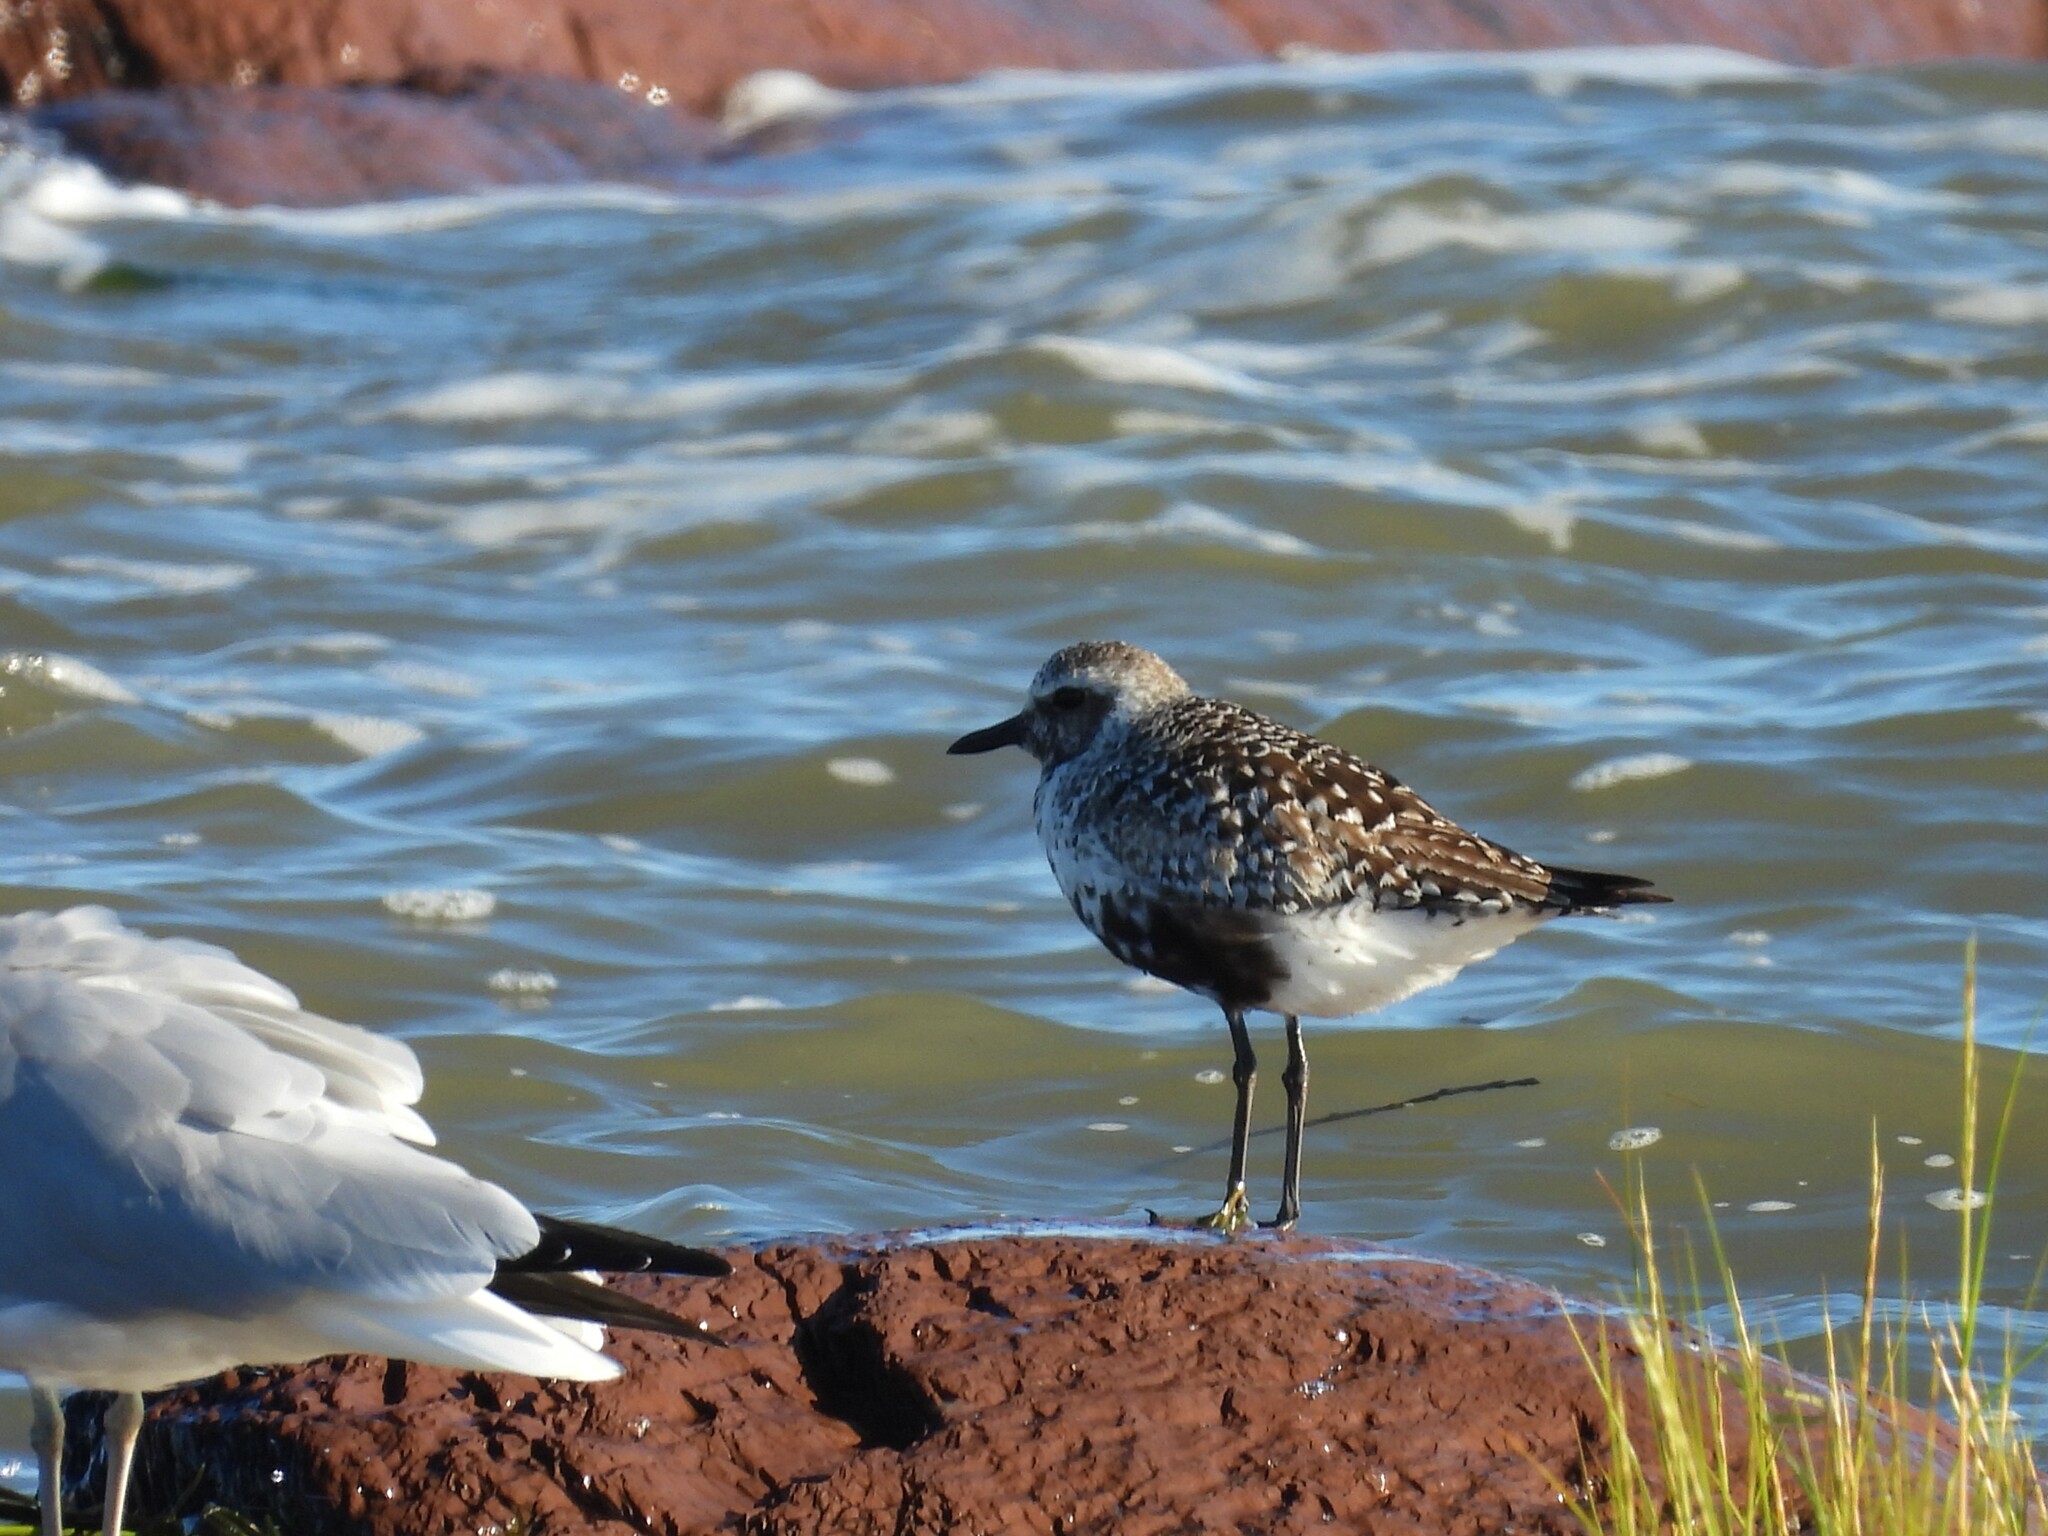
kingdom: Animalia
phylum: Chordata
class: Aves
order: Charadriiformes
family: Charadriidae
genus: Pluvialis
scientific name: Pluvialis squatarola
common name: Grey plover
